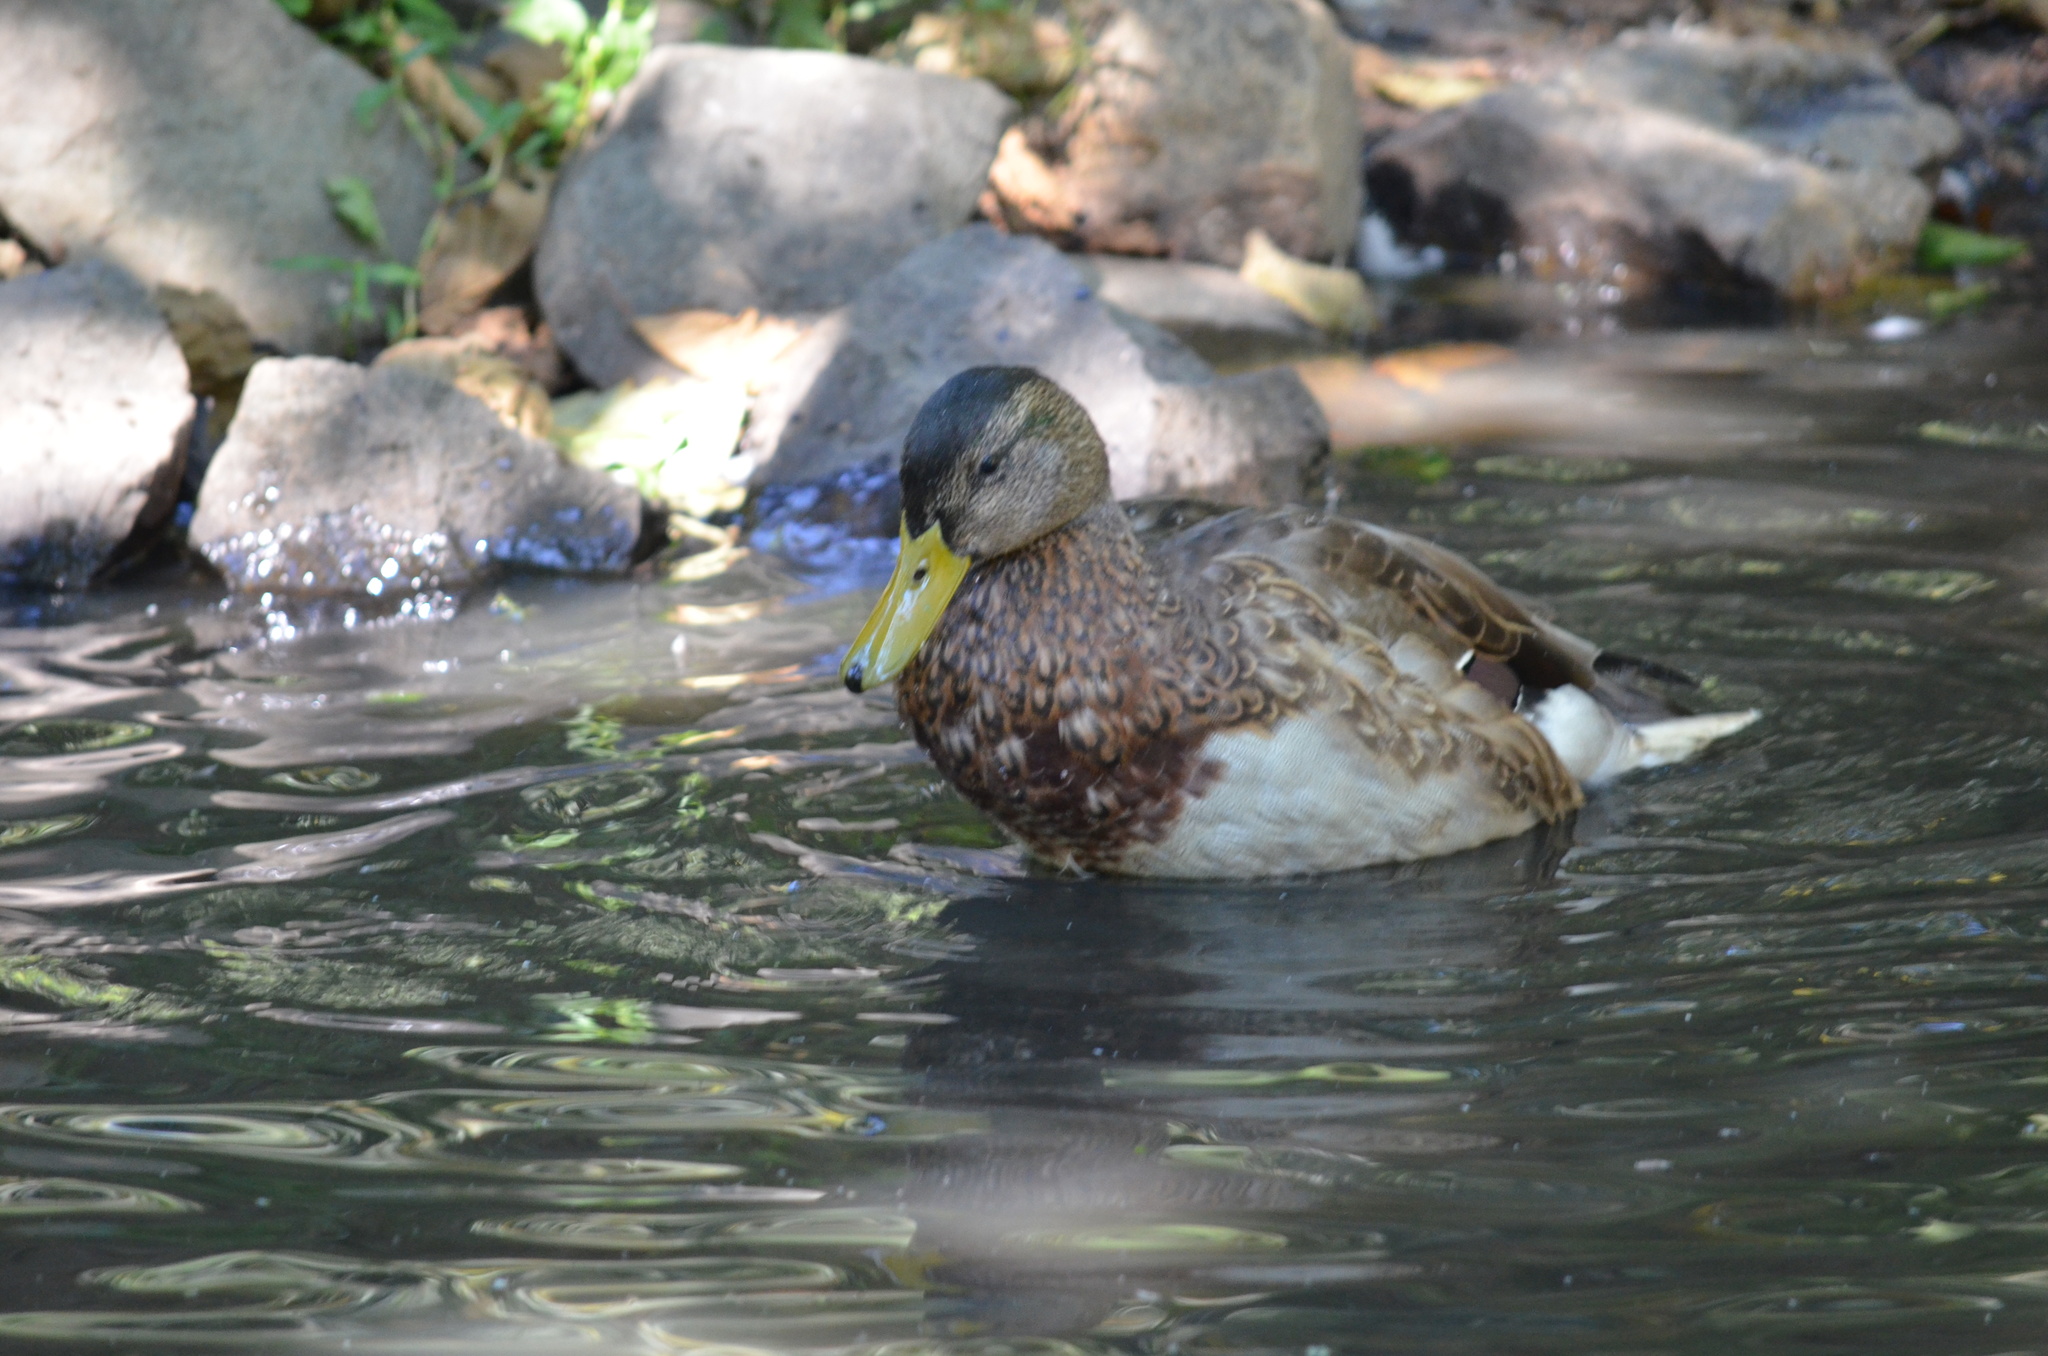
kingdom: Animalia
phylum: Chordata
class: Aves
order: Anseriformes
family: Anatidae
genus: Anas
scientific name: Anas platyrhynchos
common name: Mallard
